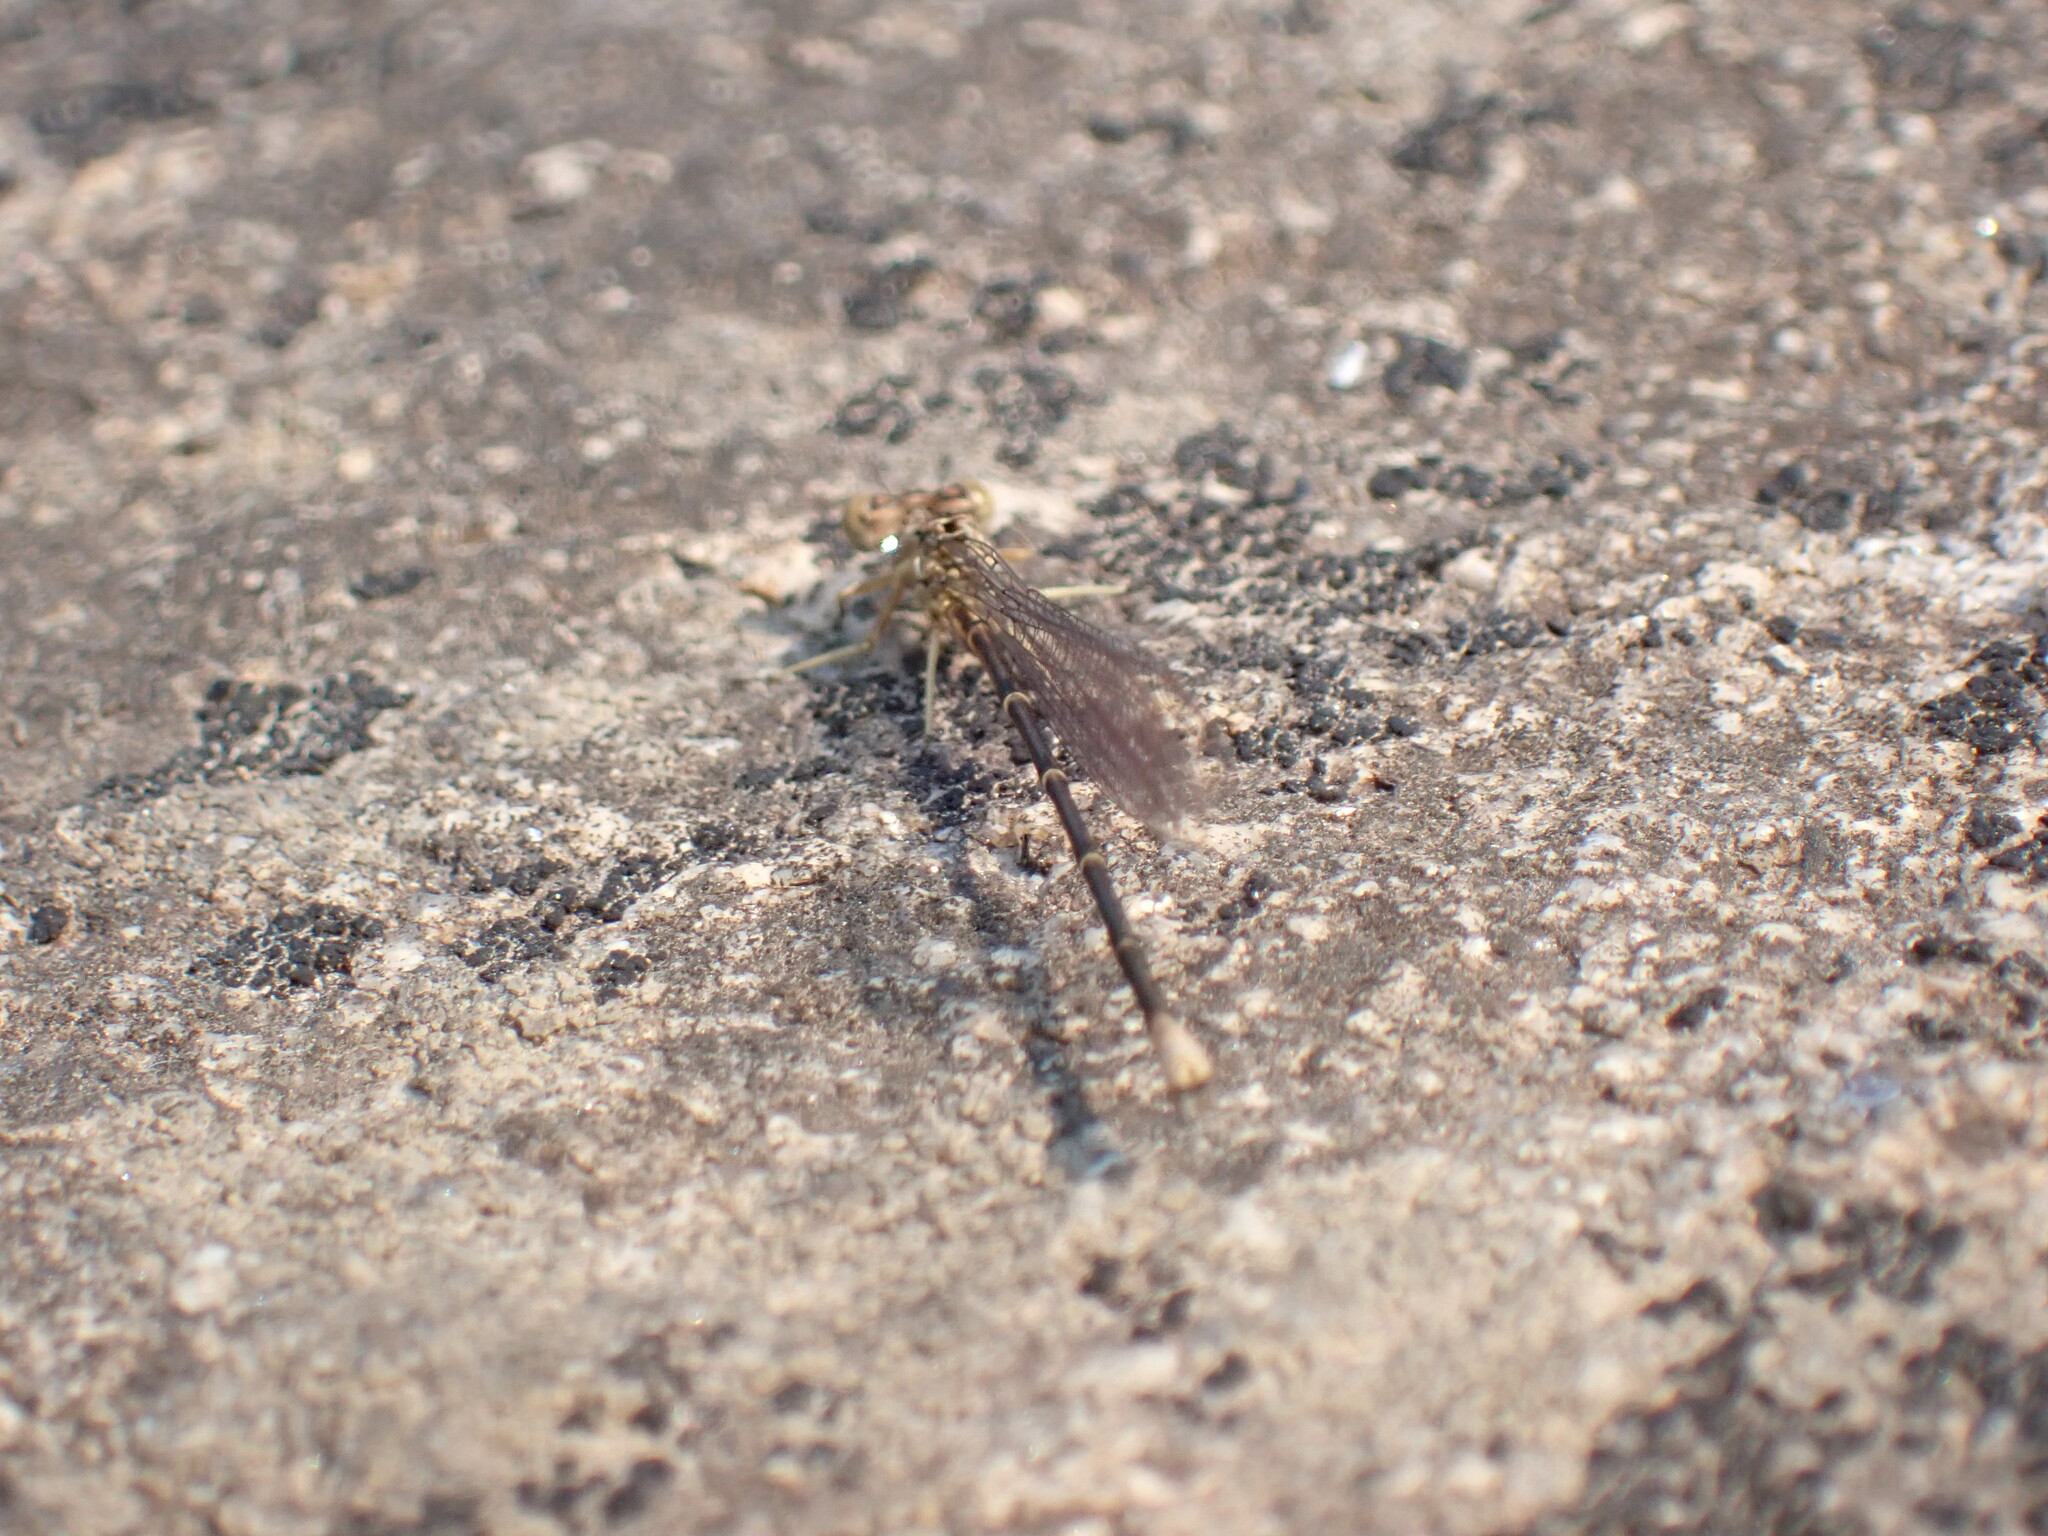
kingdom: Animalia
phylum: Arthropoda
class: Insecta
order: Odonata
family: Coenagrionidae
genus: Argia
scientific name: Argia apicalis
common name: Blue-fronted dancer
